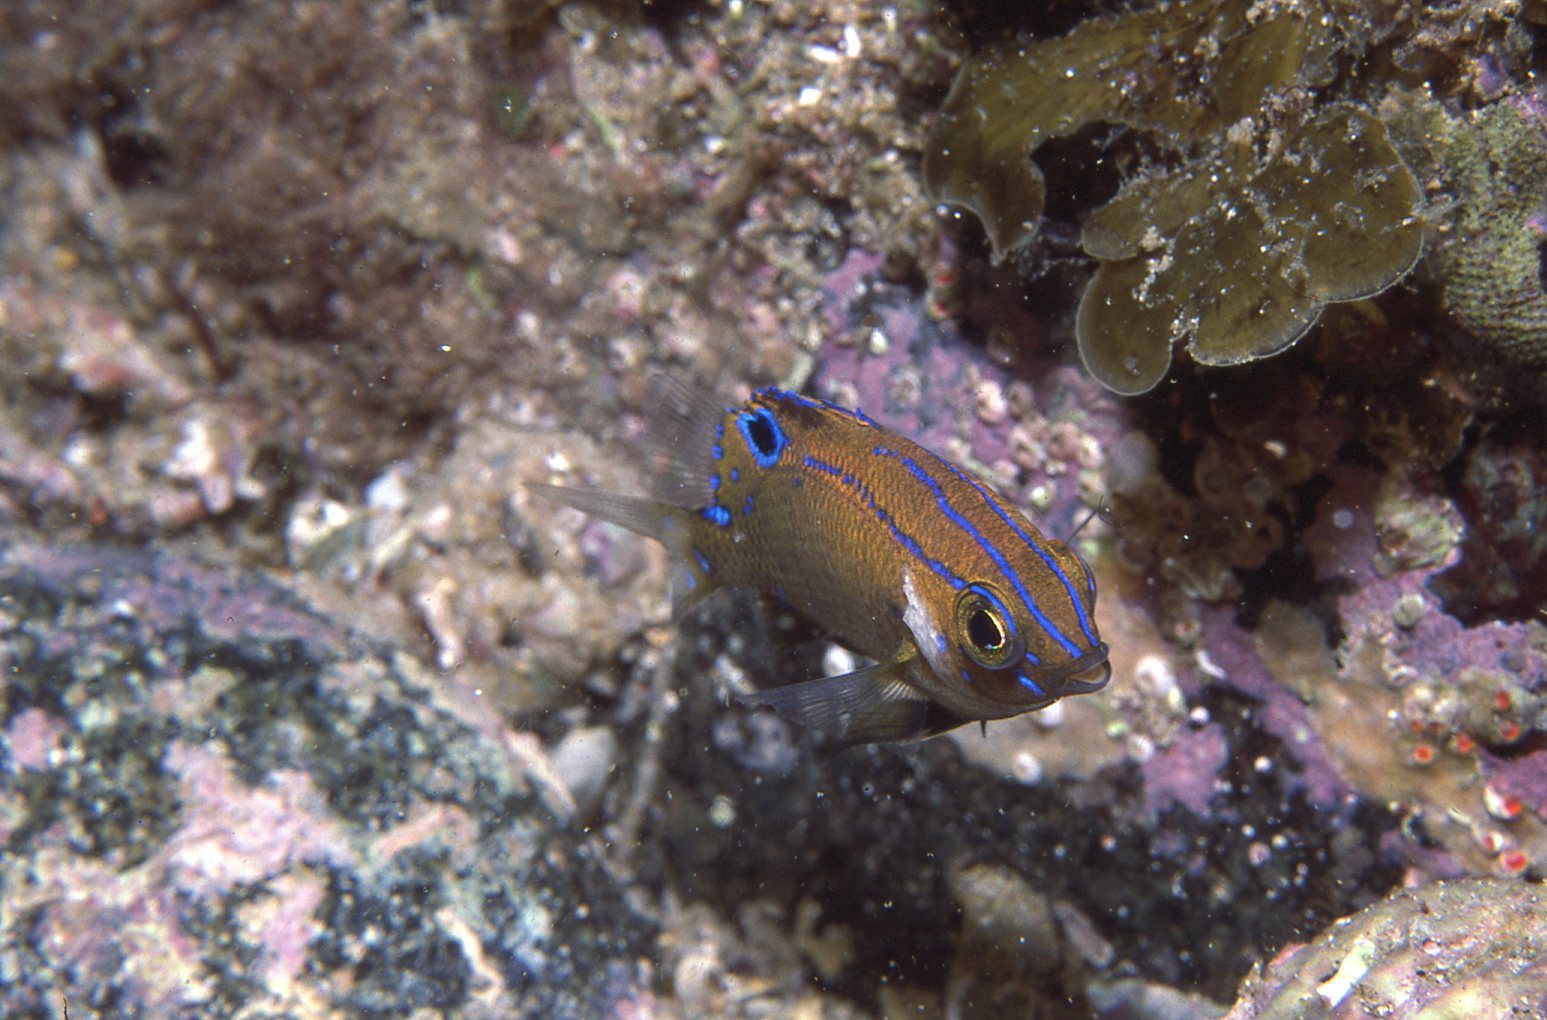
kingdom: Animalia
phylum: Chordata
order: Perciformes
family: Pomacentridae
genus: Parma
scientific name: Parma microlepis
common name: White-ear
